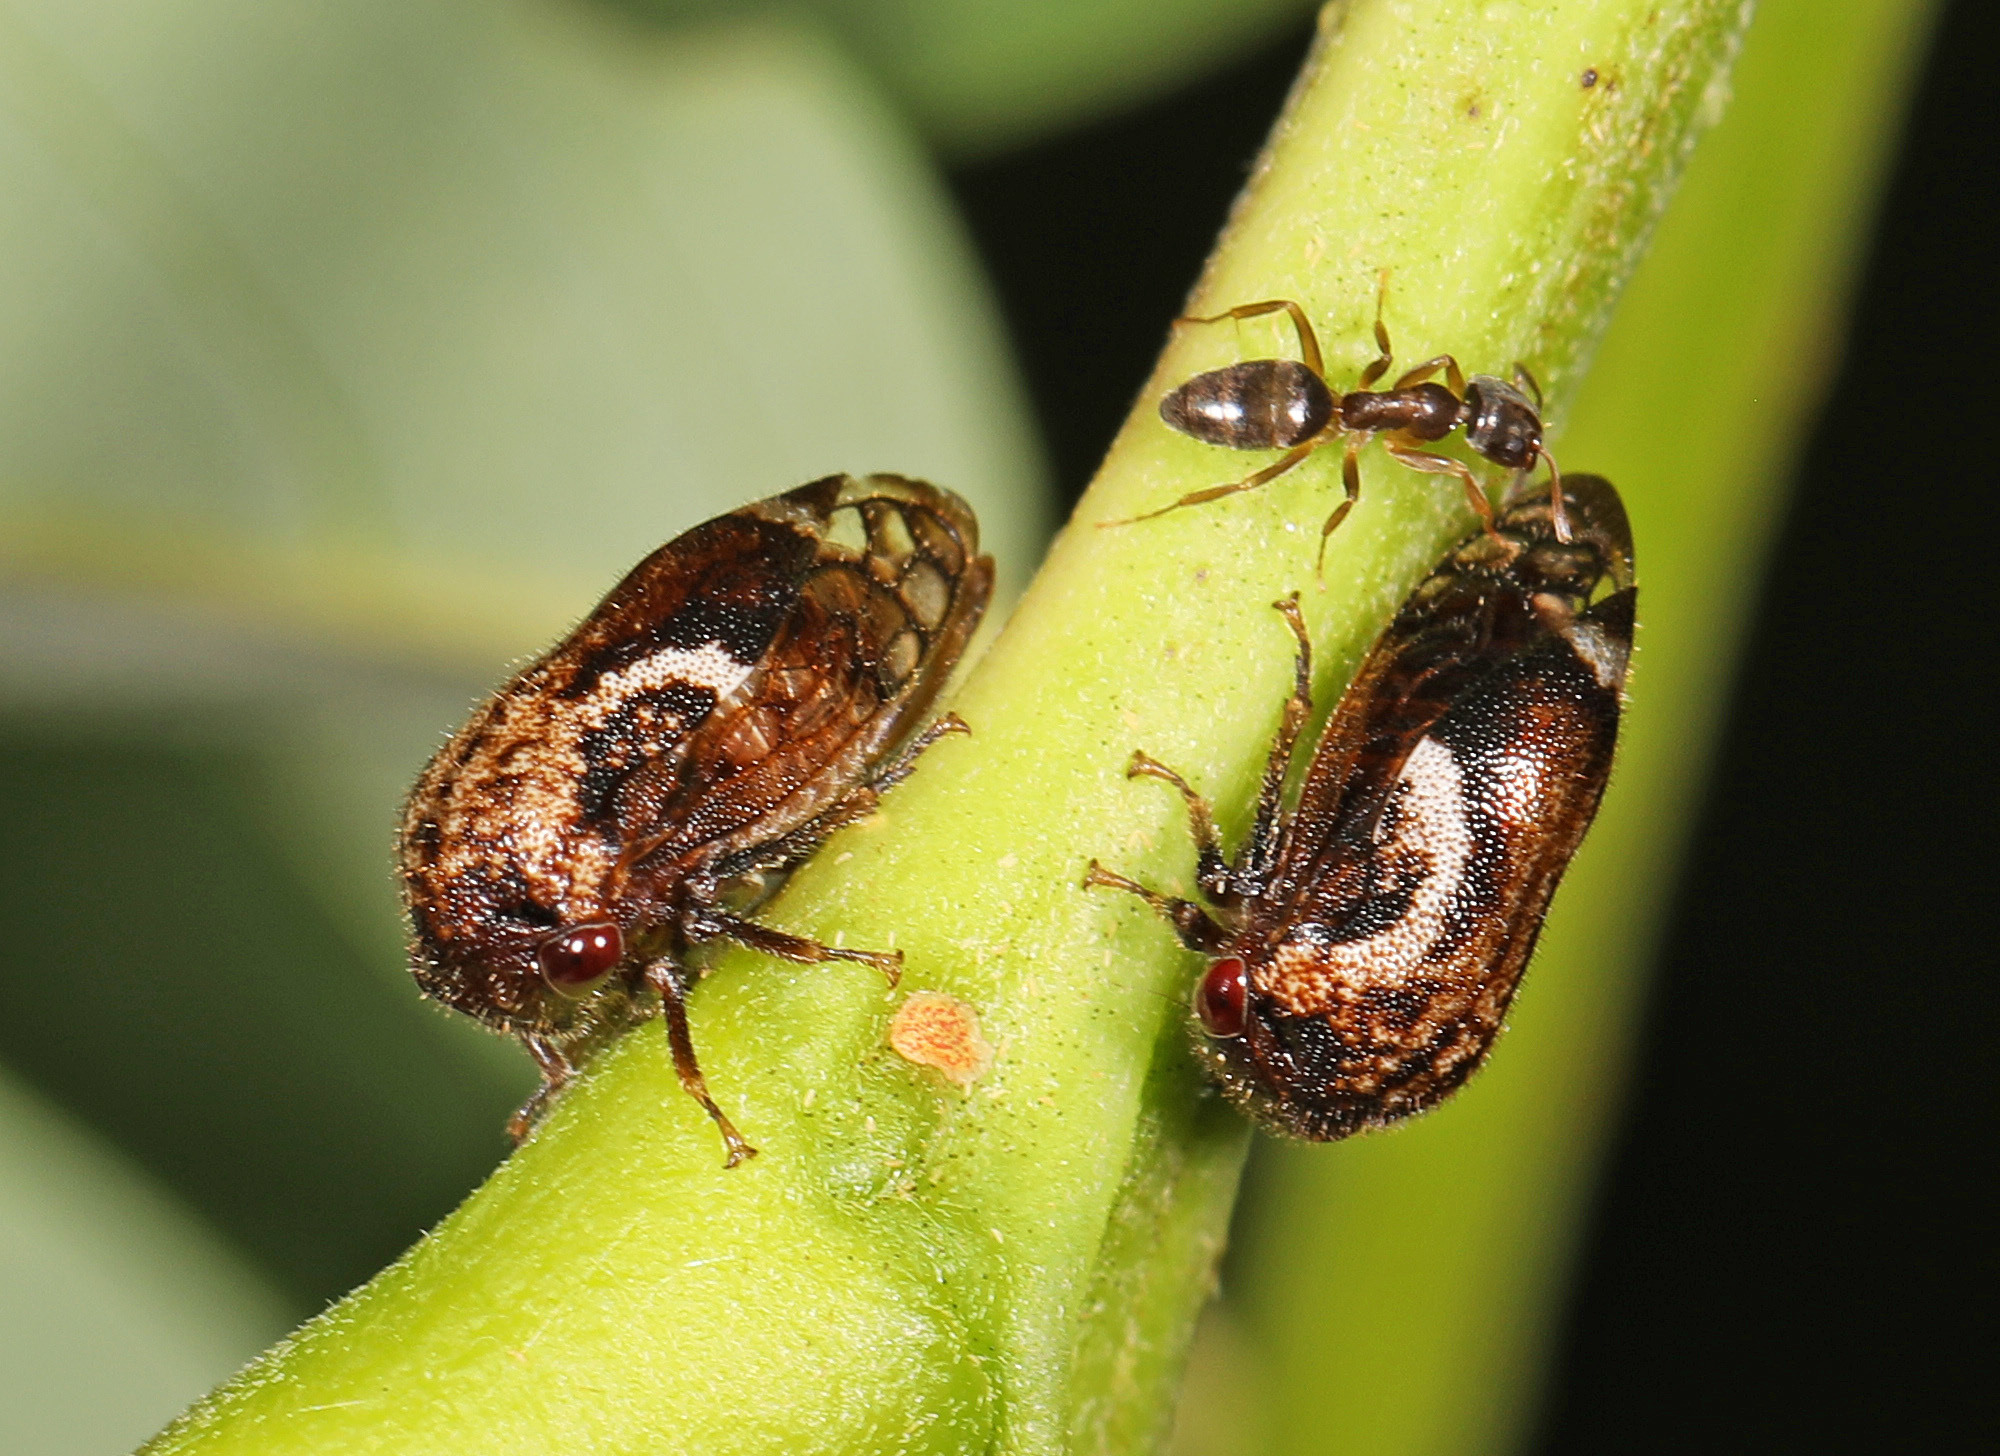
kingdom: Animalia
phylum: Arthropoda
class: Insecta
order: Hemiptera
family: Membracidae
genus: Vanduzea
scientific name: Vanduzea arquata
